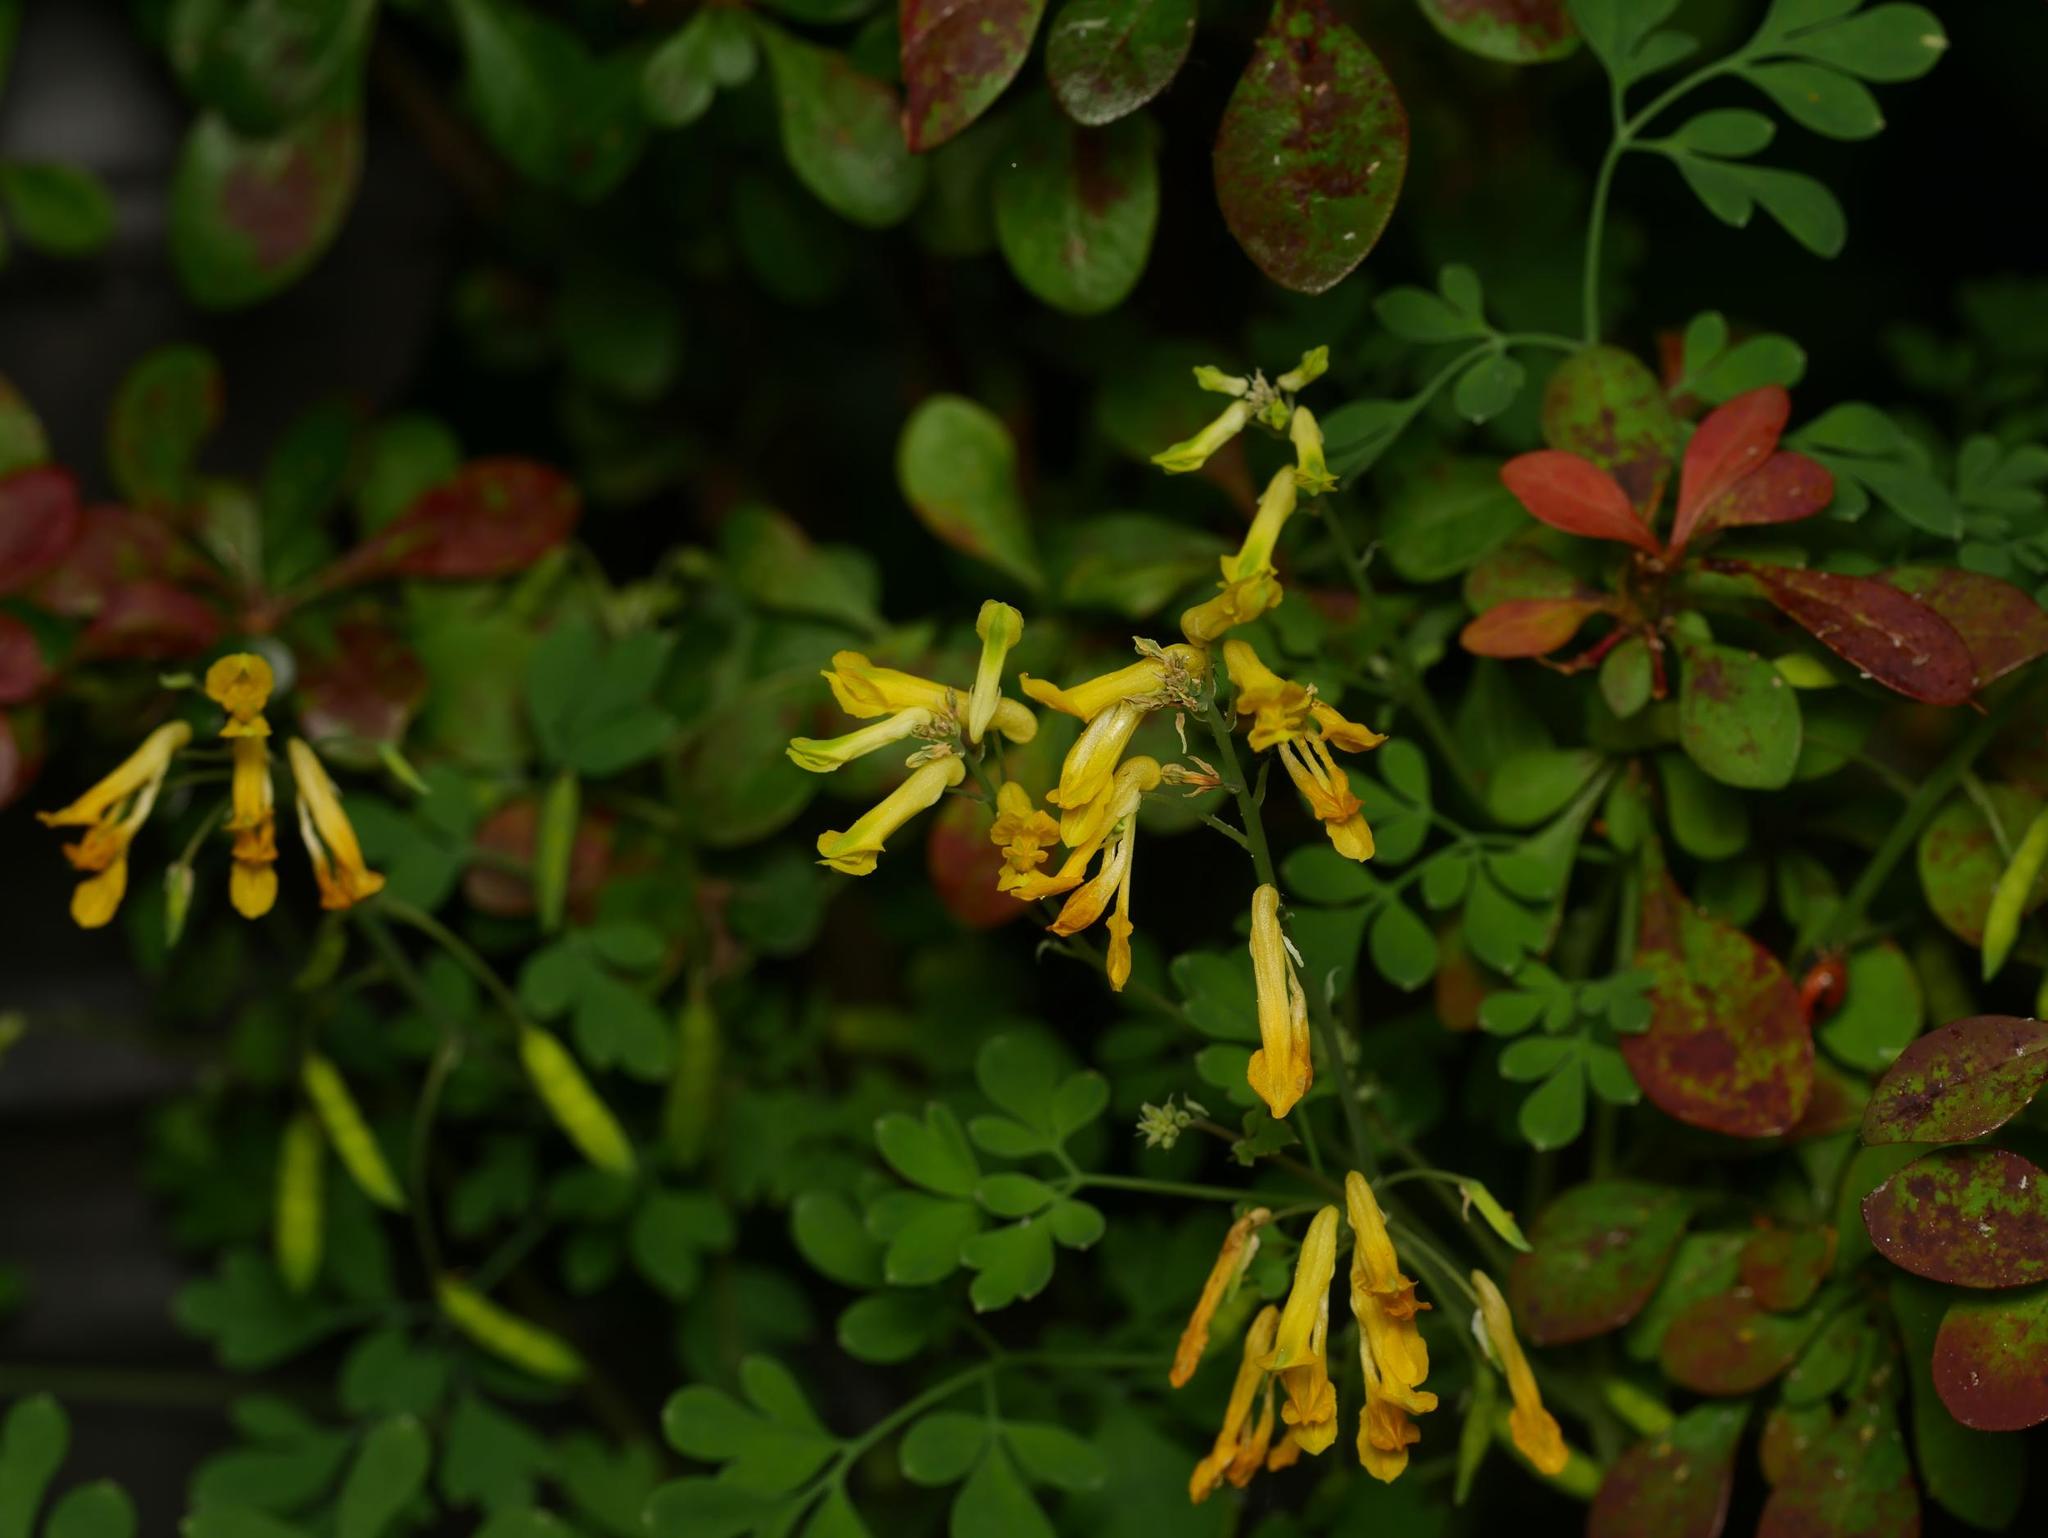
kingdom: Plantae
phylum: Tracheophyta
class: Magnoliopsida
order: Ranunculales
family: Papaveraceae
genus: Pseudofumaria
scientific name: Pseudofumaria lutea
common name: Yellow corydalis
